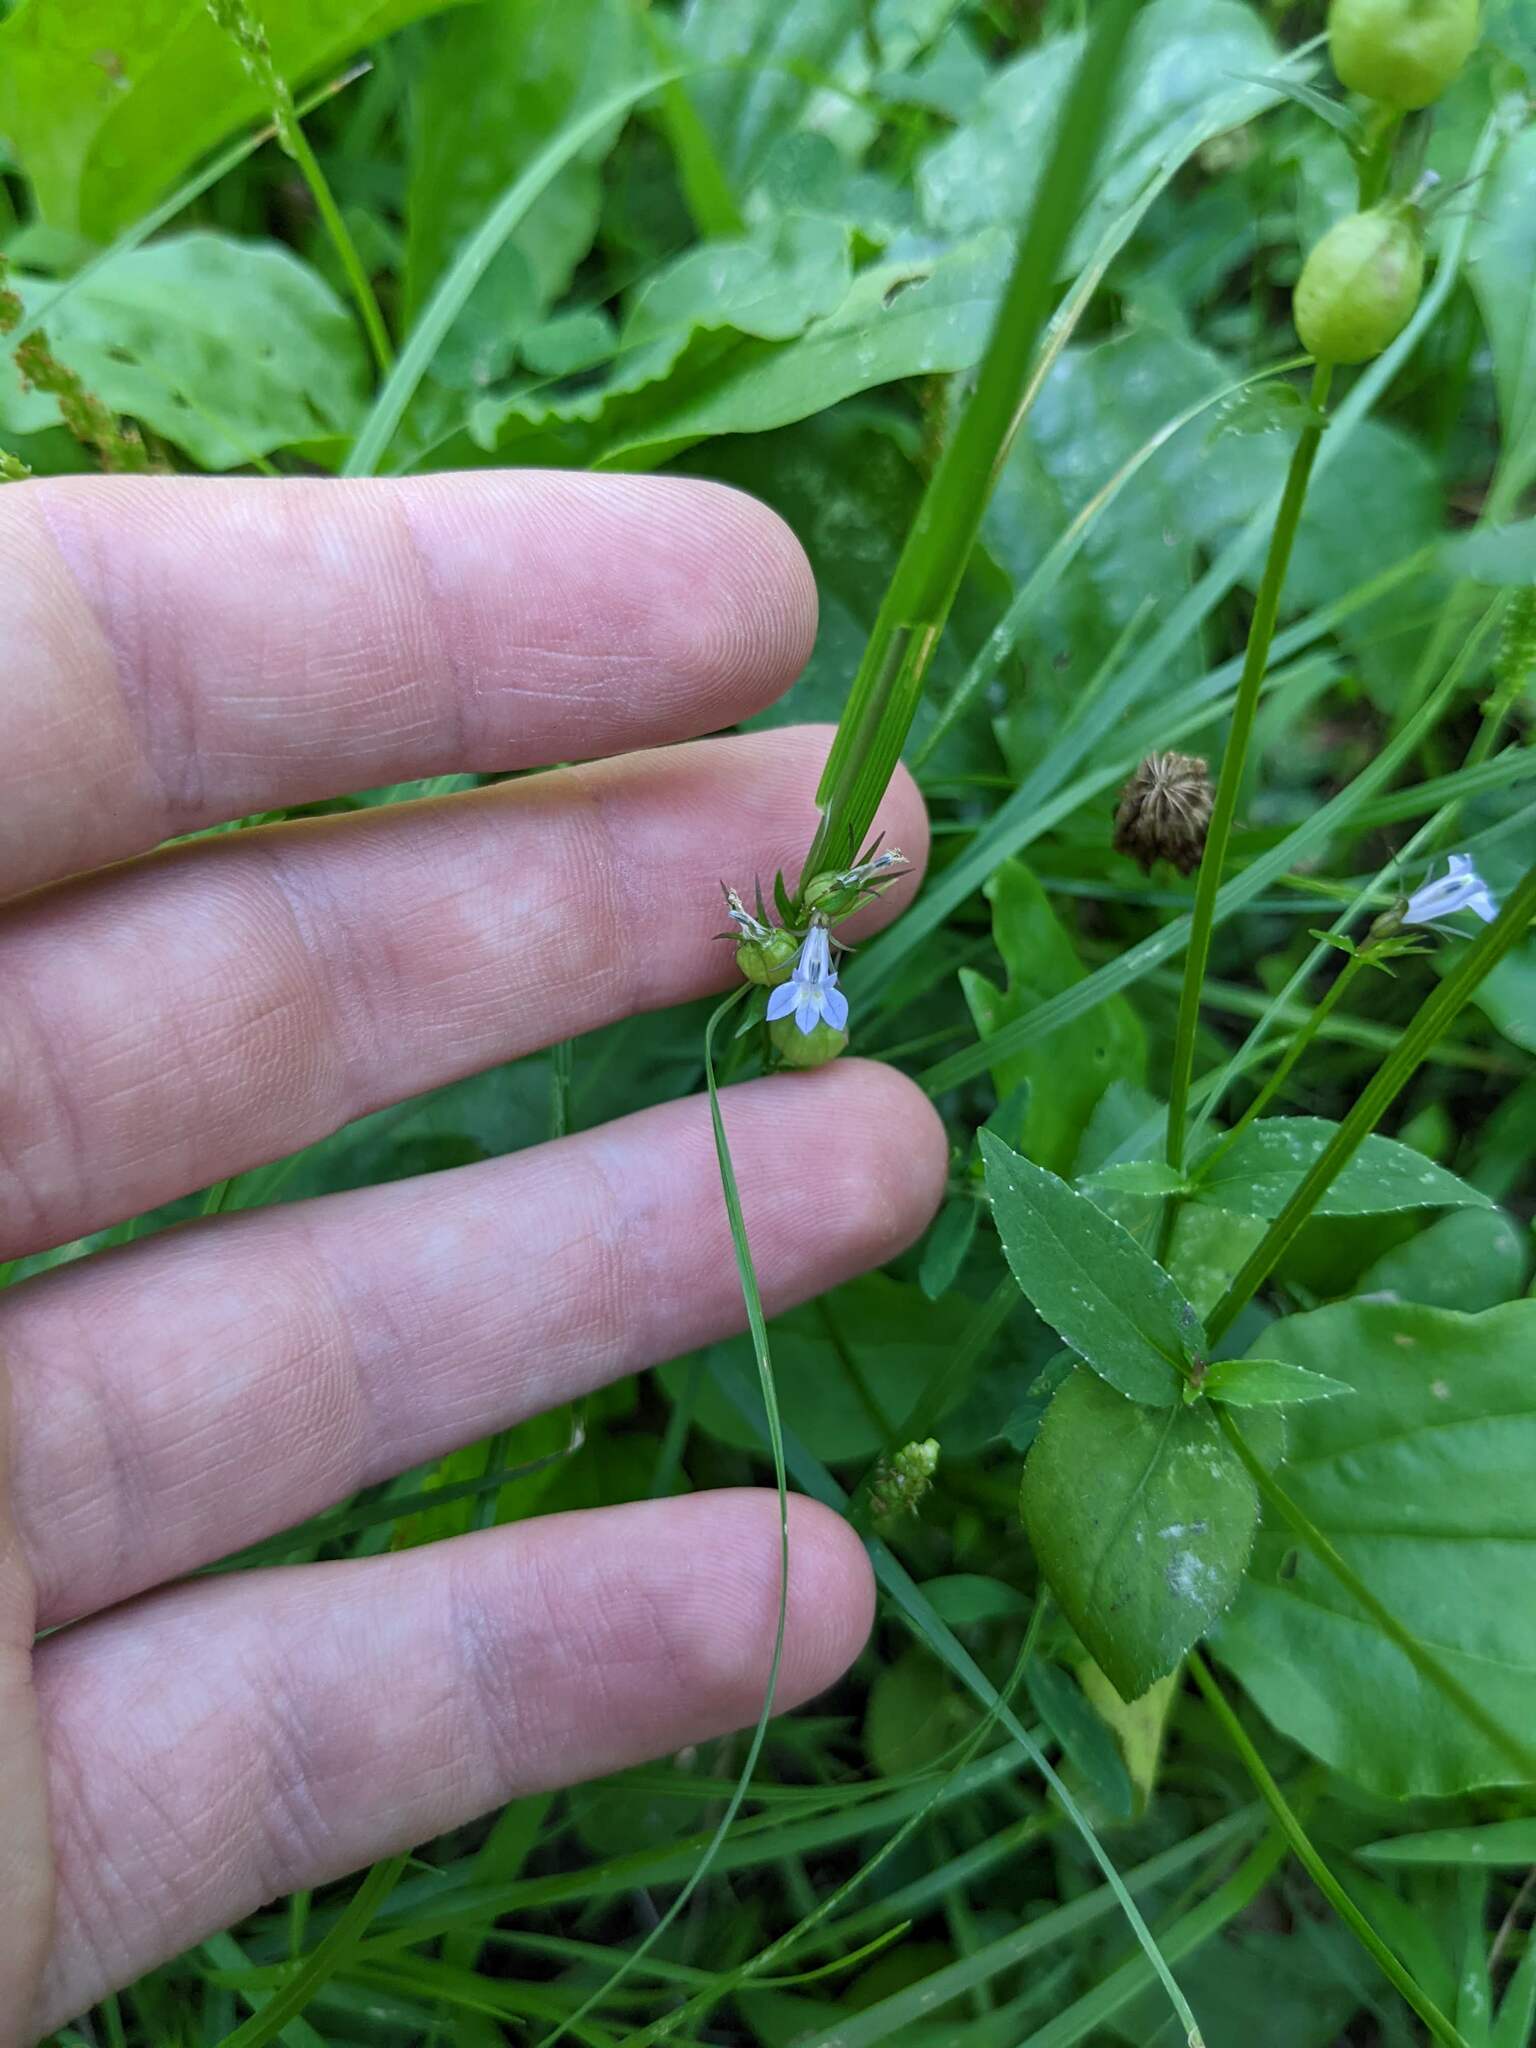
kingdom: Plantae
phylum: Tracheophyta
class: Magnoliopsida
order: Asterales
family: Campanulaceae
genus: Lobelia
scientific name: Lobelia inflata
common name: Indian tobacco
